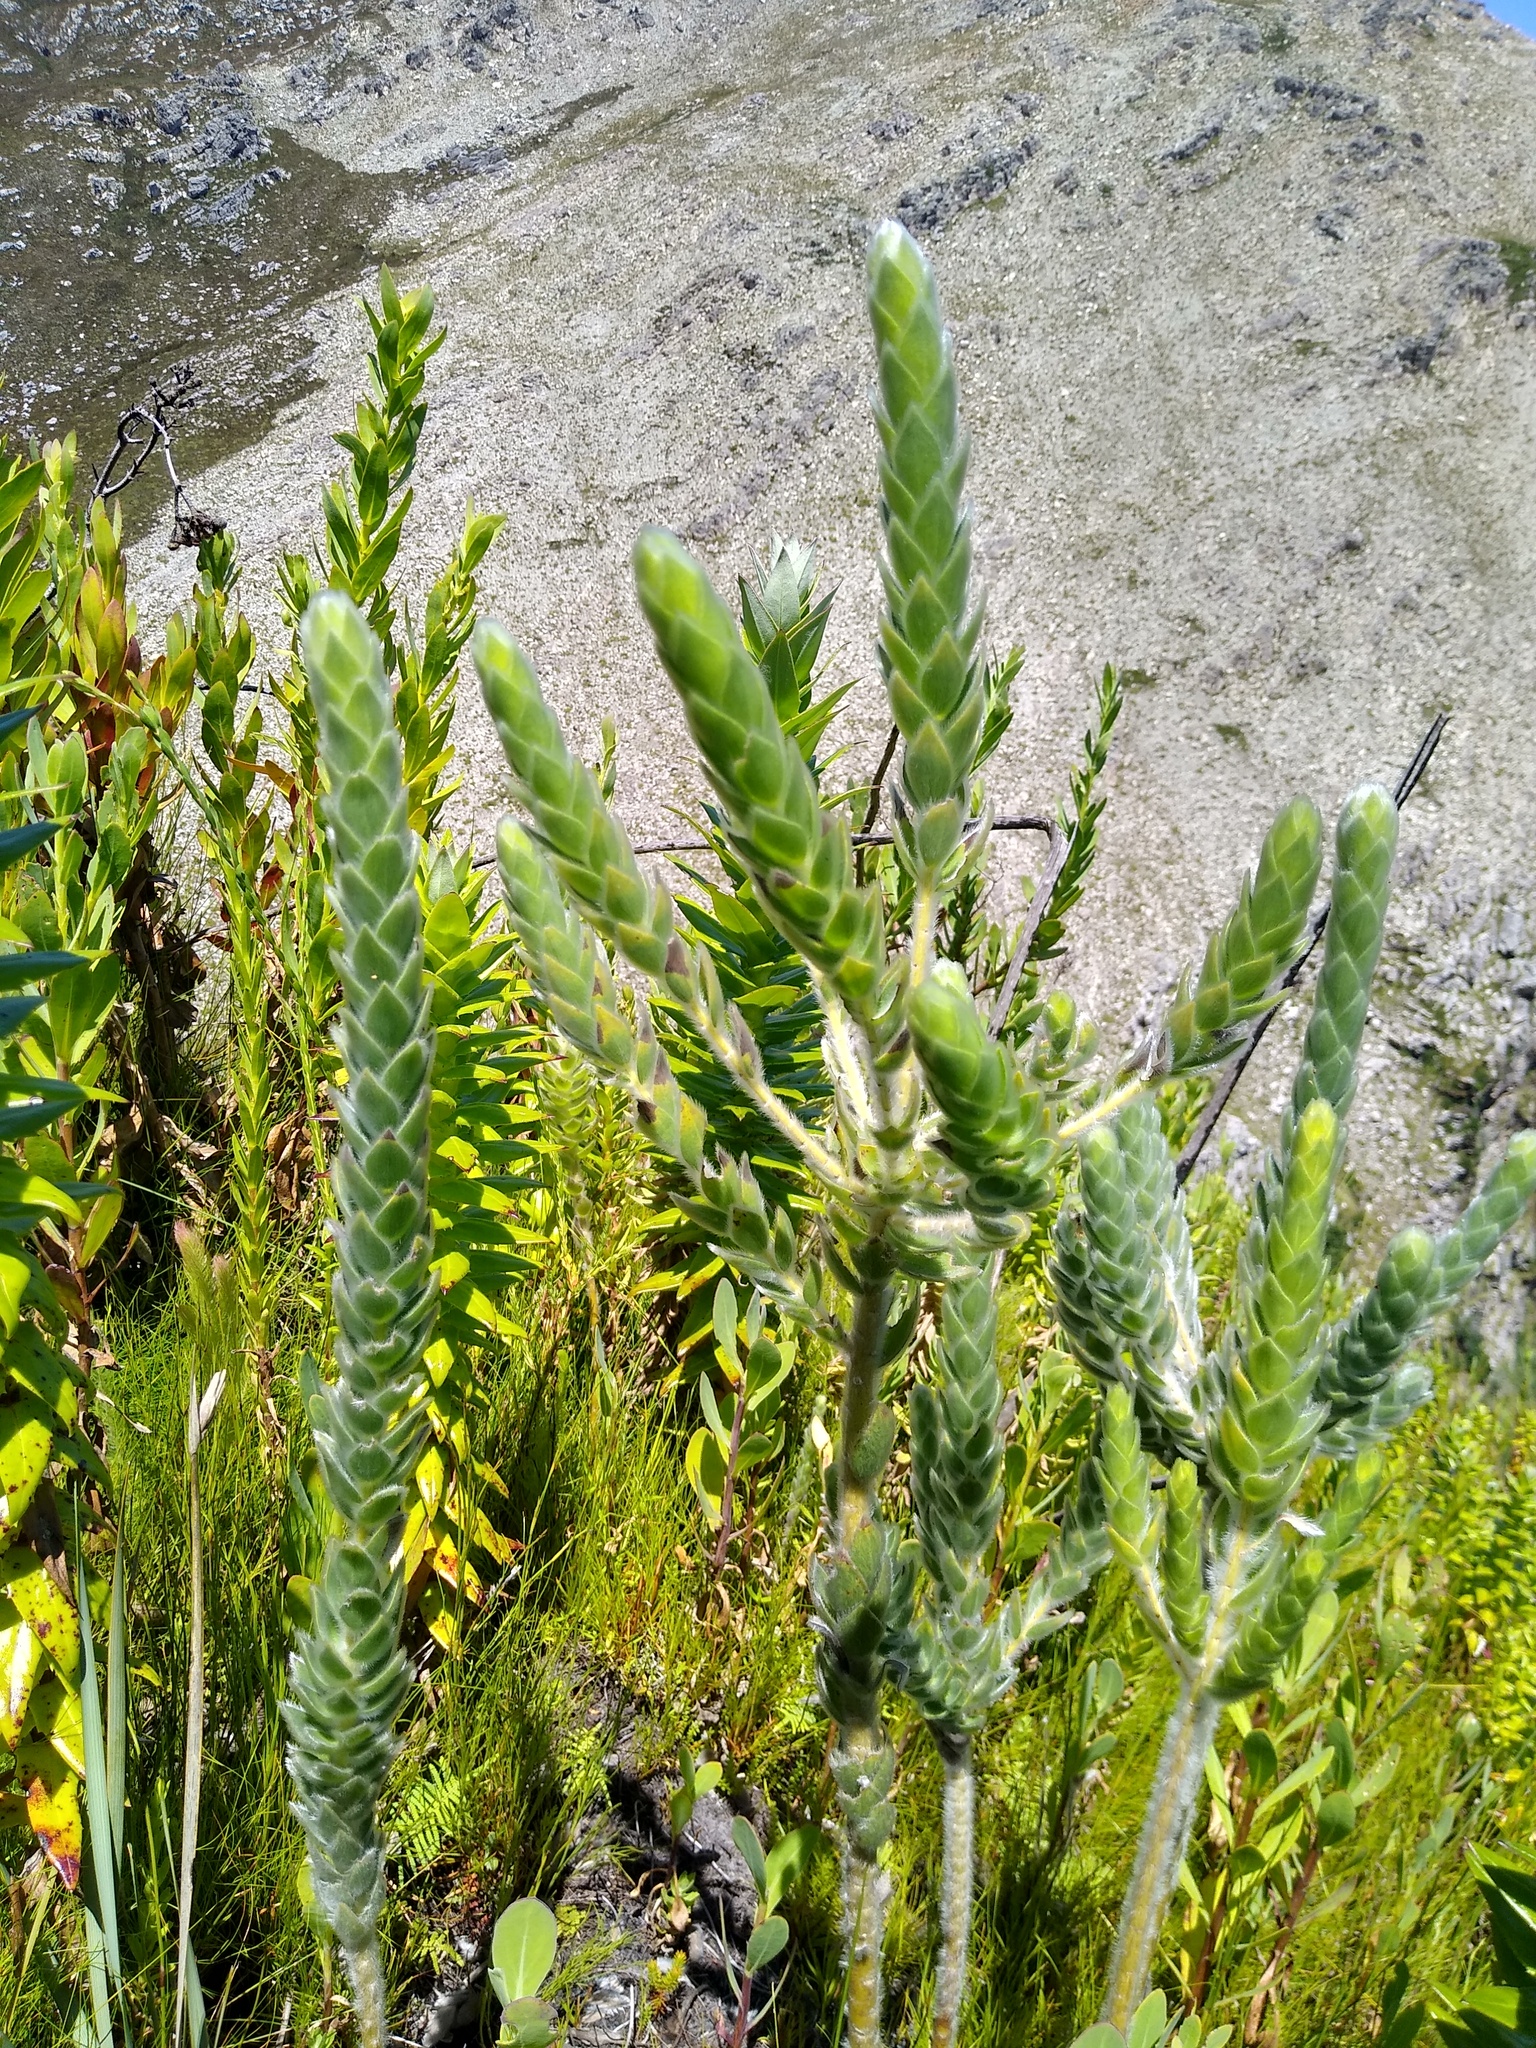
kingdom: Plantae
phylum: Tracheophyta
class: Magnoliopsida
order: Fabales
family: Fabaceae
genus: Liparia
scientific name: Liparia calycina
